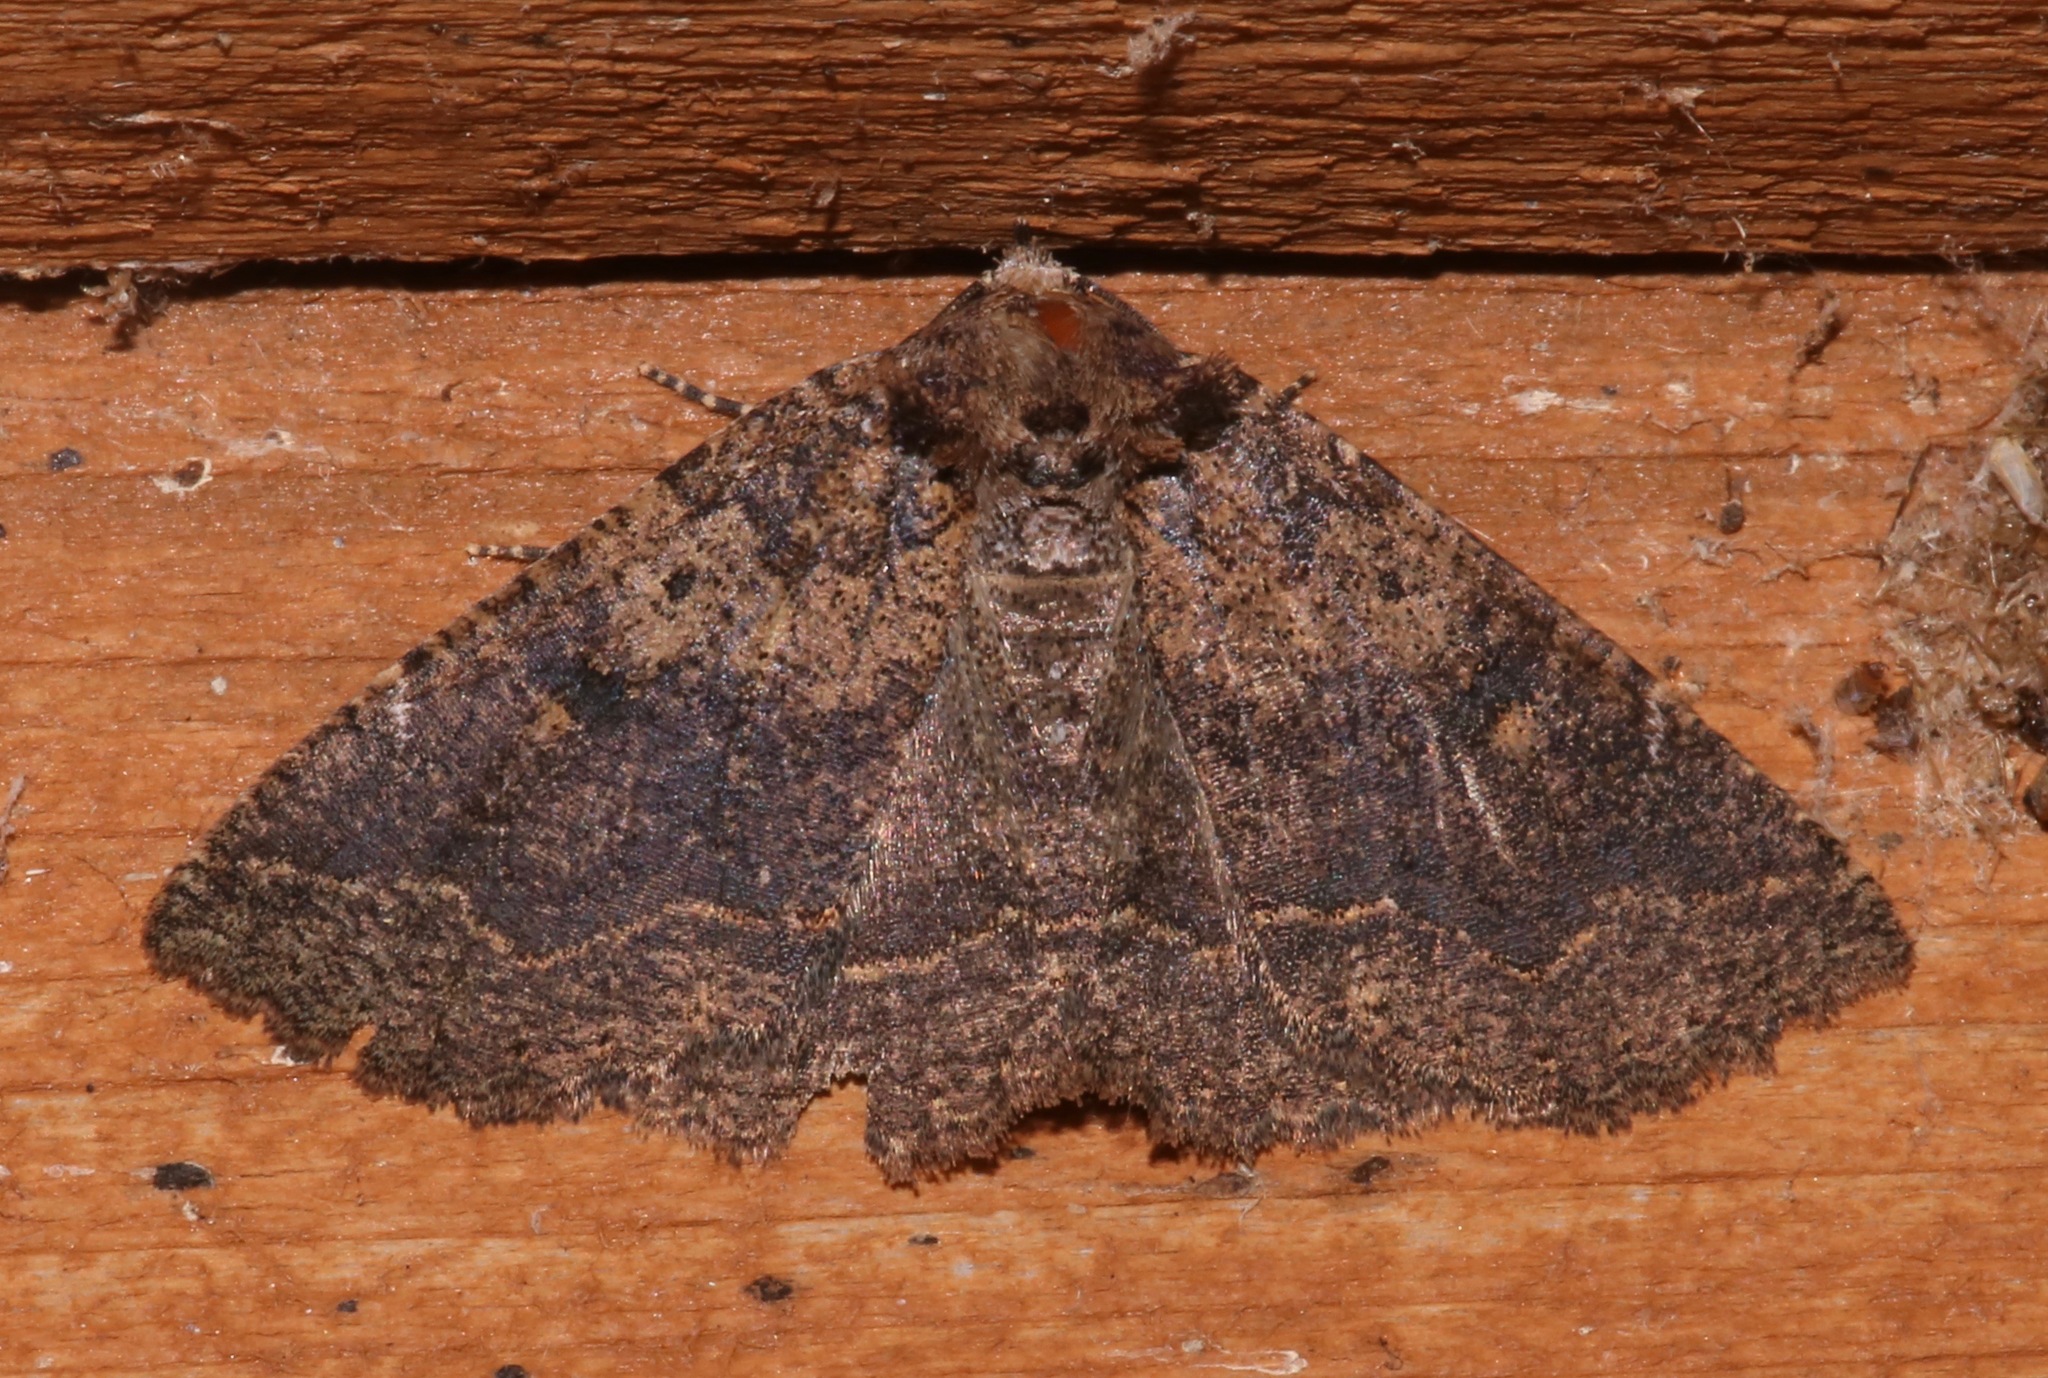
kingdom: Animalia
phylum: Arthropoda
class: Insecta
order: Lepidoptera
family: Erebidae
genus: Zale
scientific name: Zale declarans
